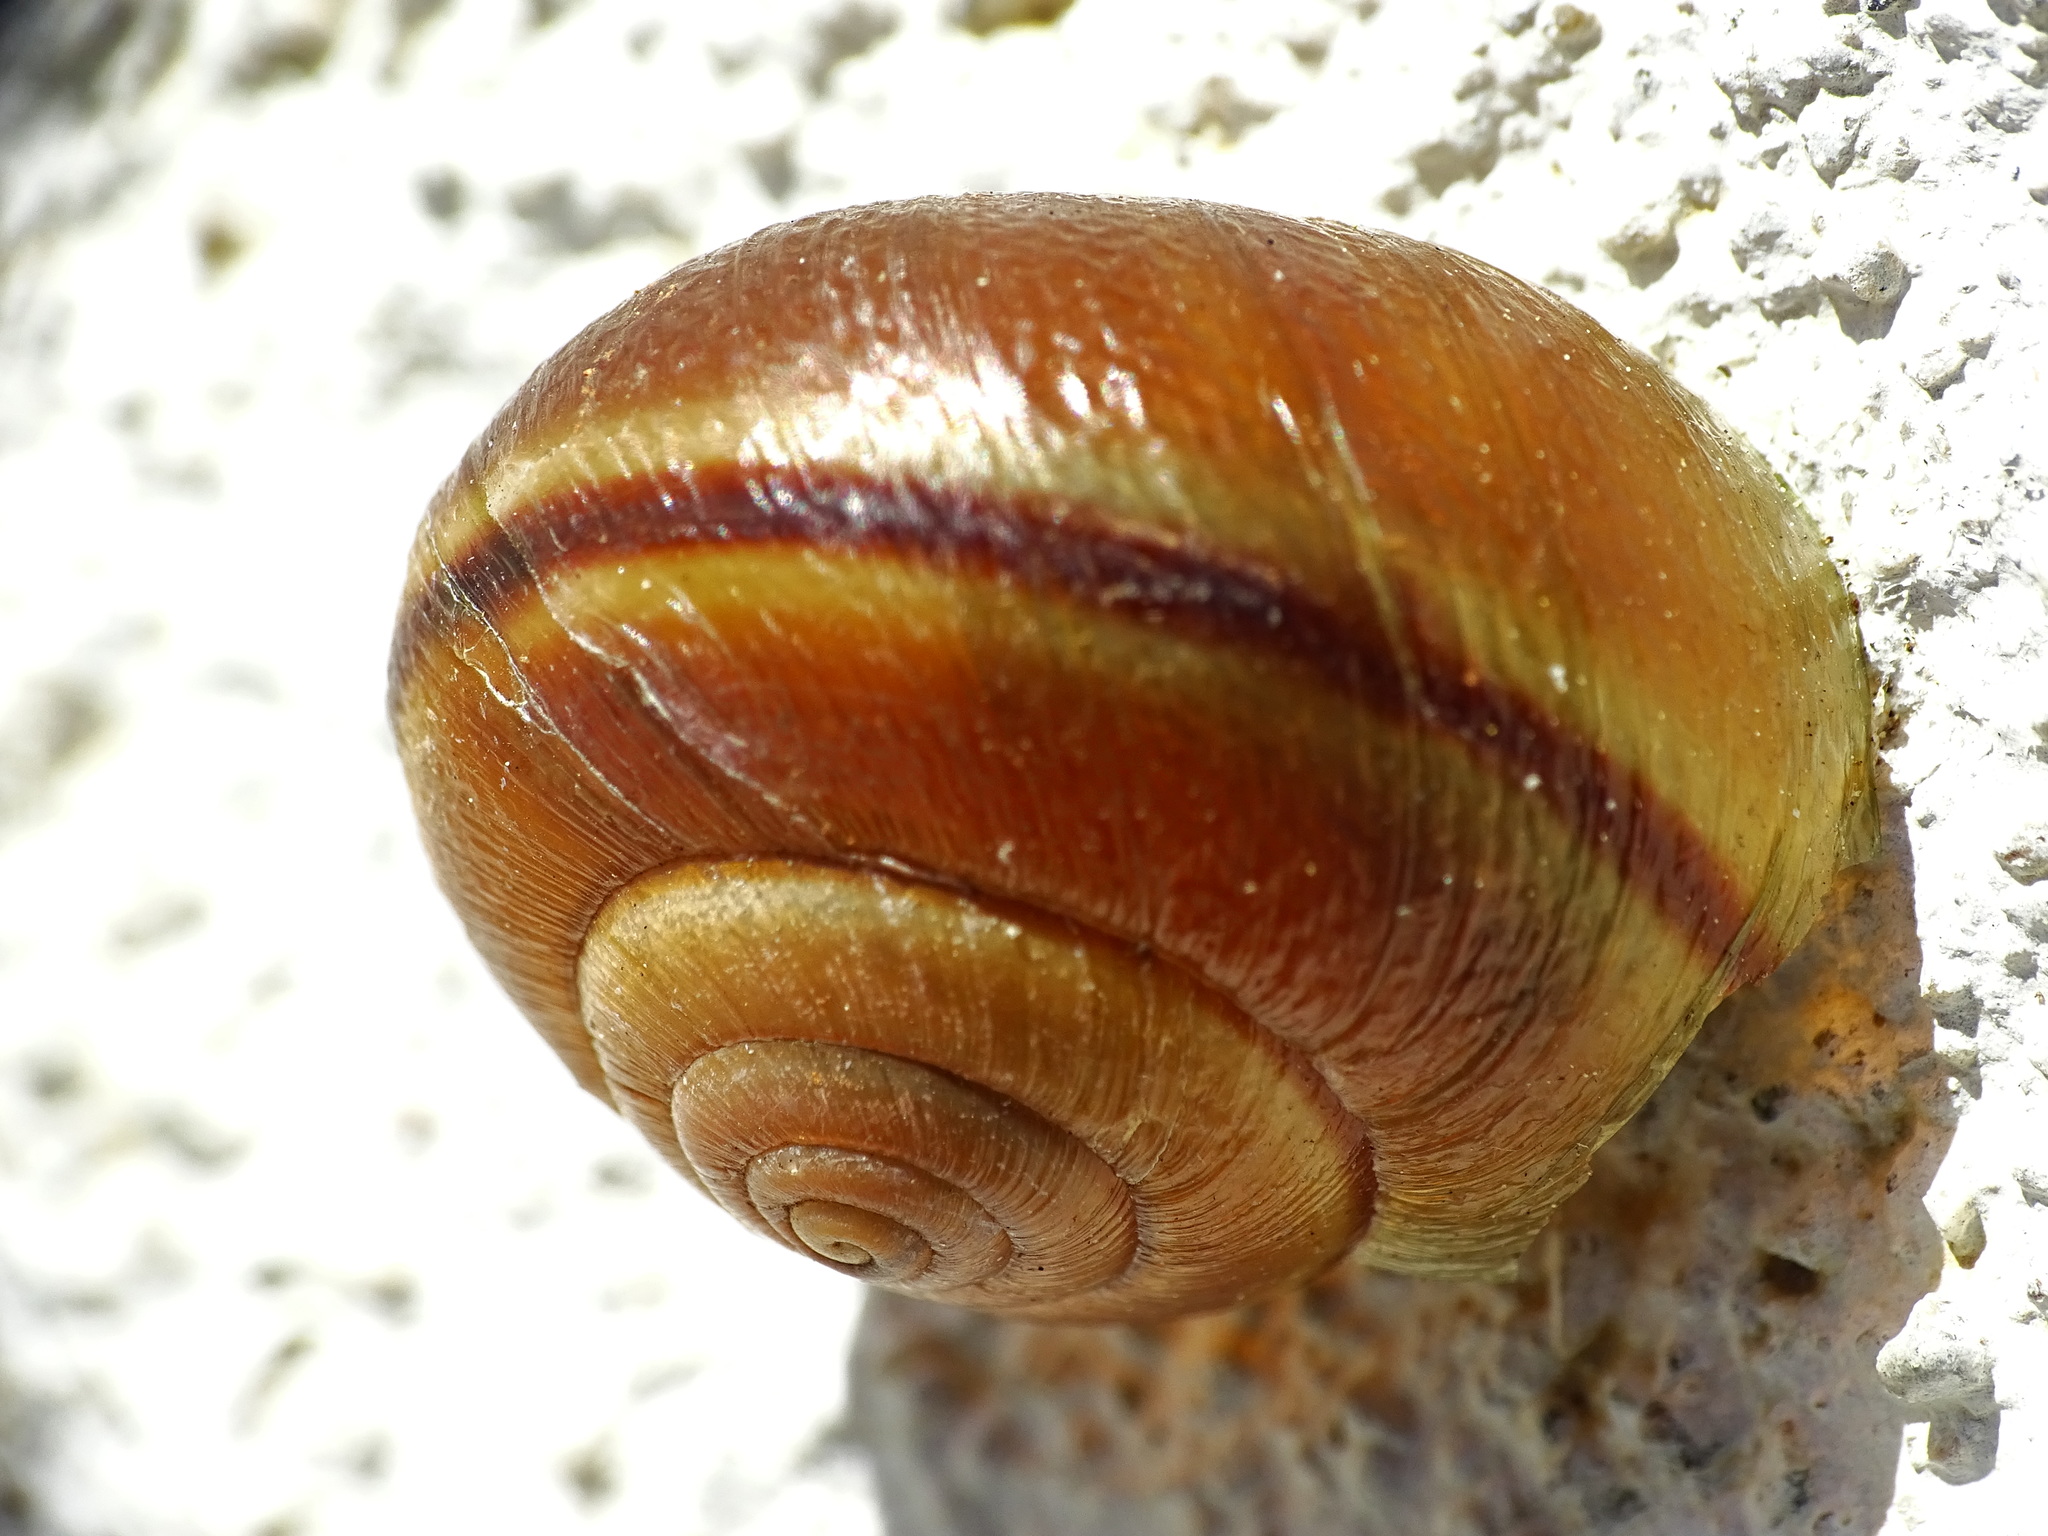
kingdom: Animalia
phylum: Mollusca
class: Gastropoda
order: Stylommatophora
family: Xanthonychidae
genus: Helminthoglypta
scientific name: Helminthoglypta tudiculata
